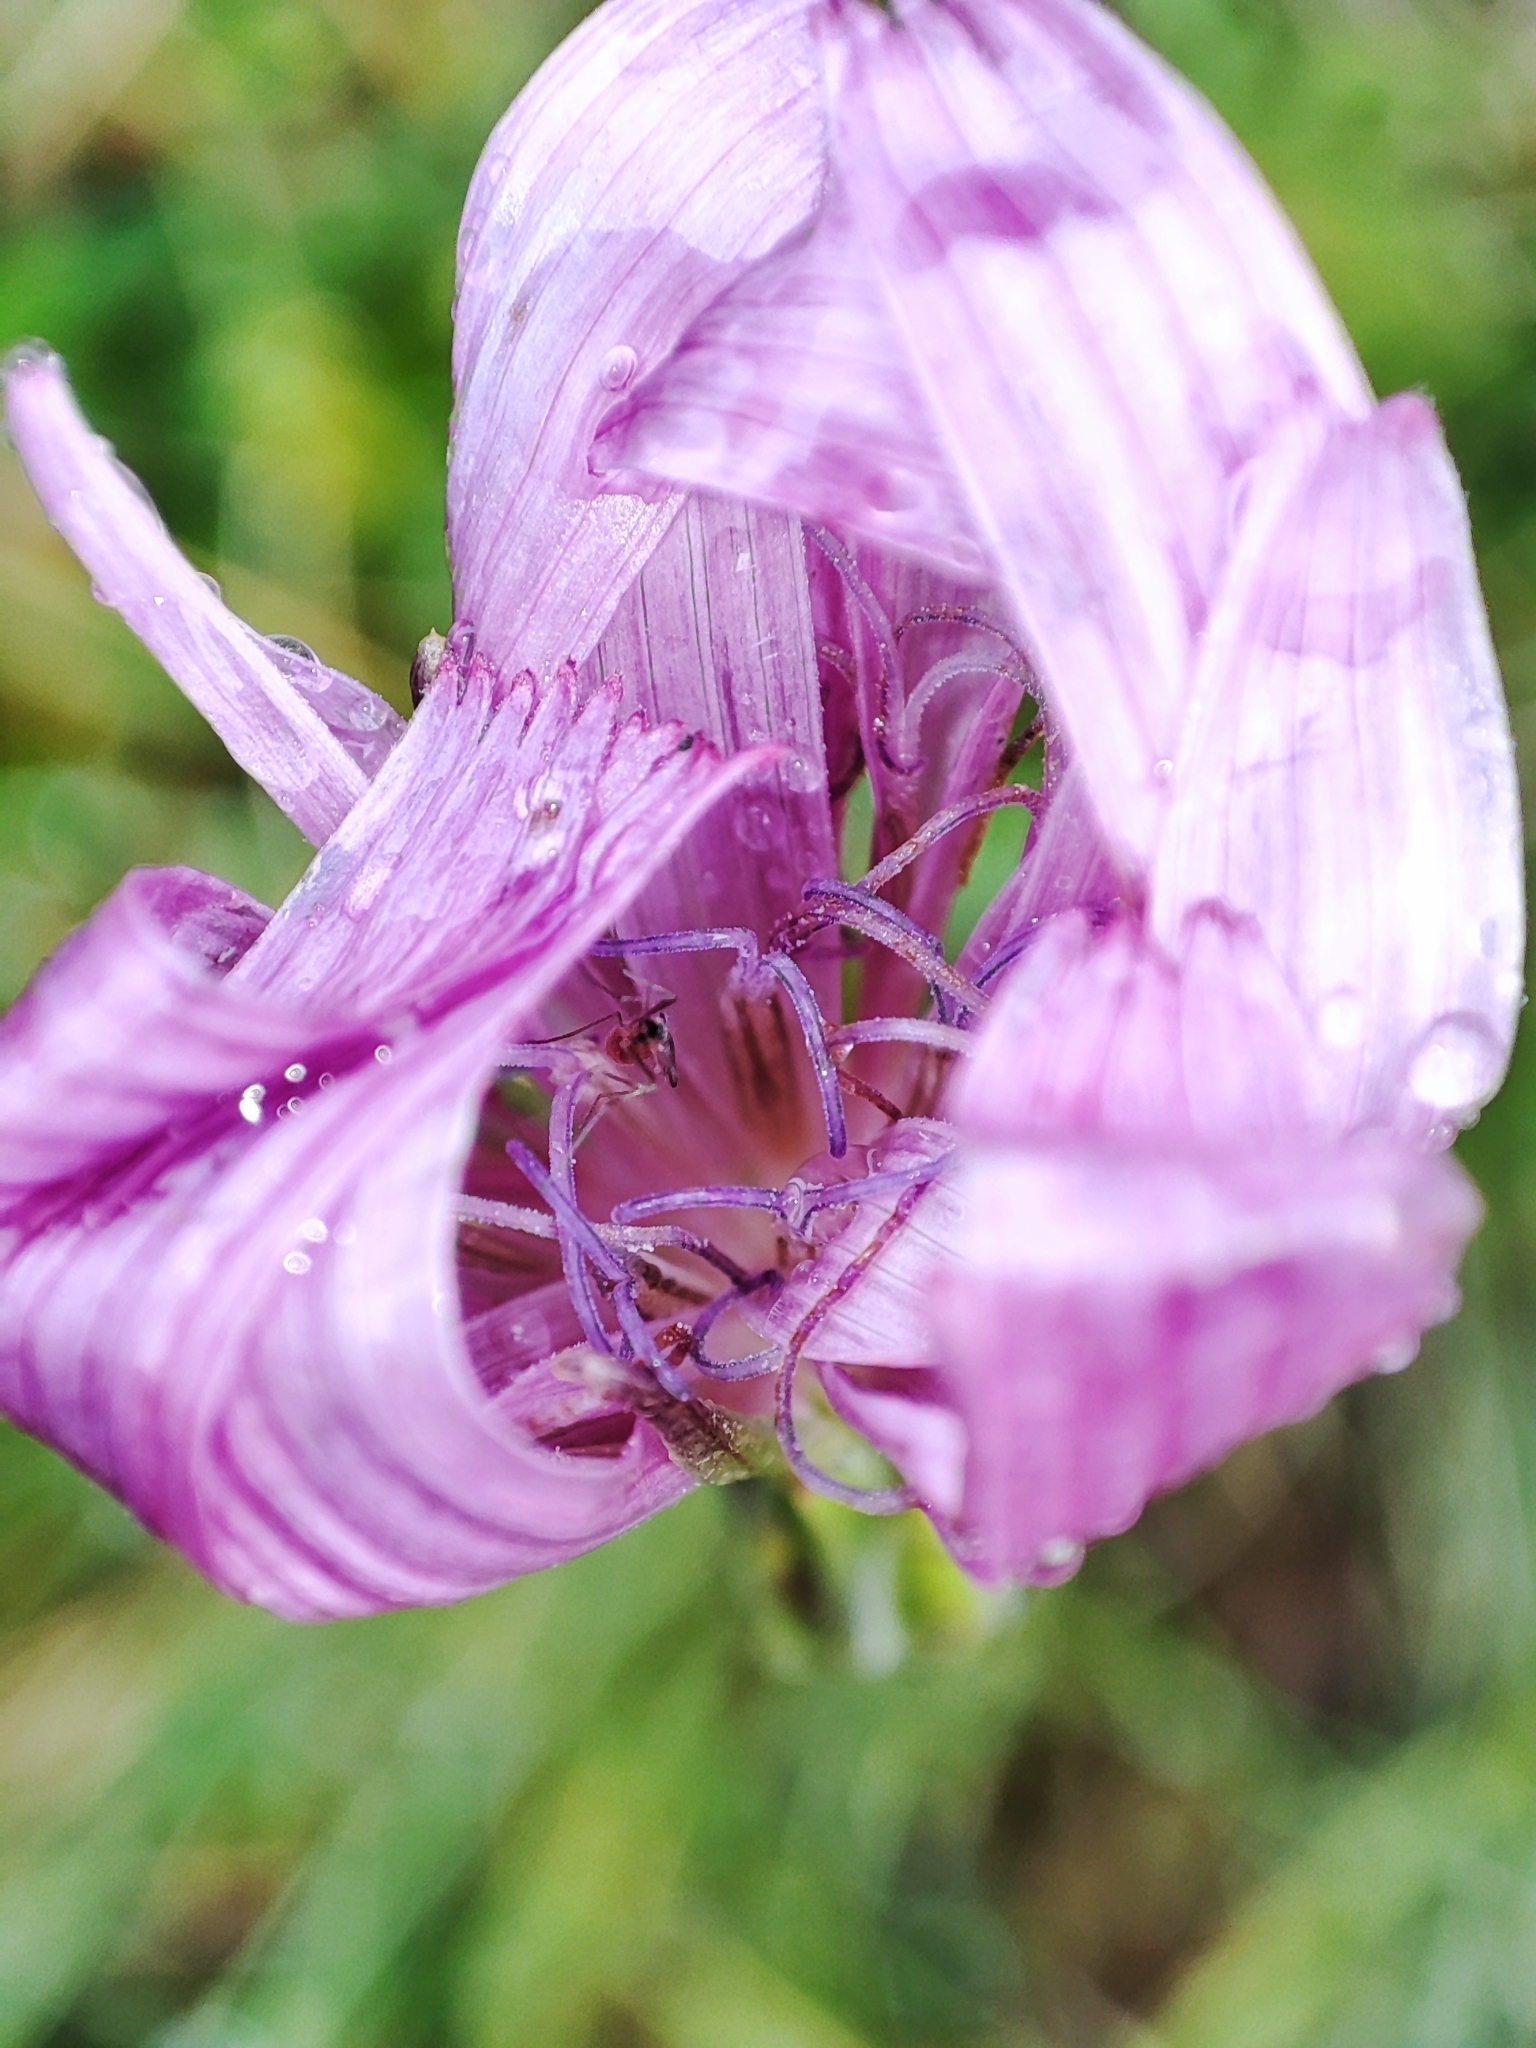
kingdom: Plantae
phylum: Tracheophyta
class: Magnoliopsida
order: Asterales
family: Asteraceae
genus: Scorzonera
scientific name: Scorzonera rosea
